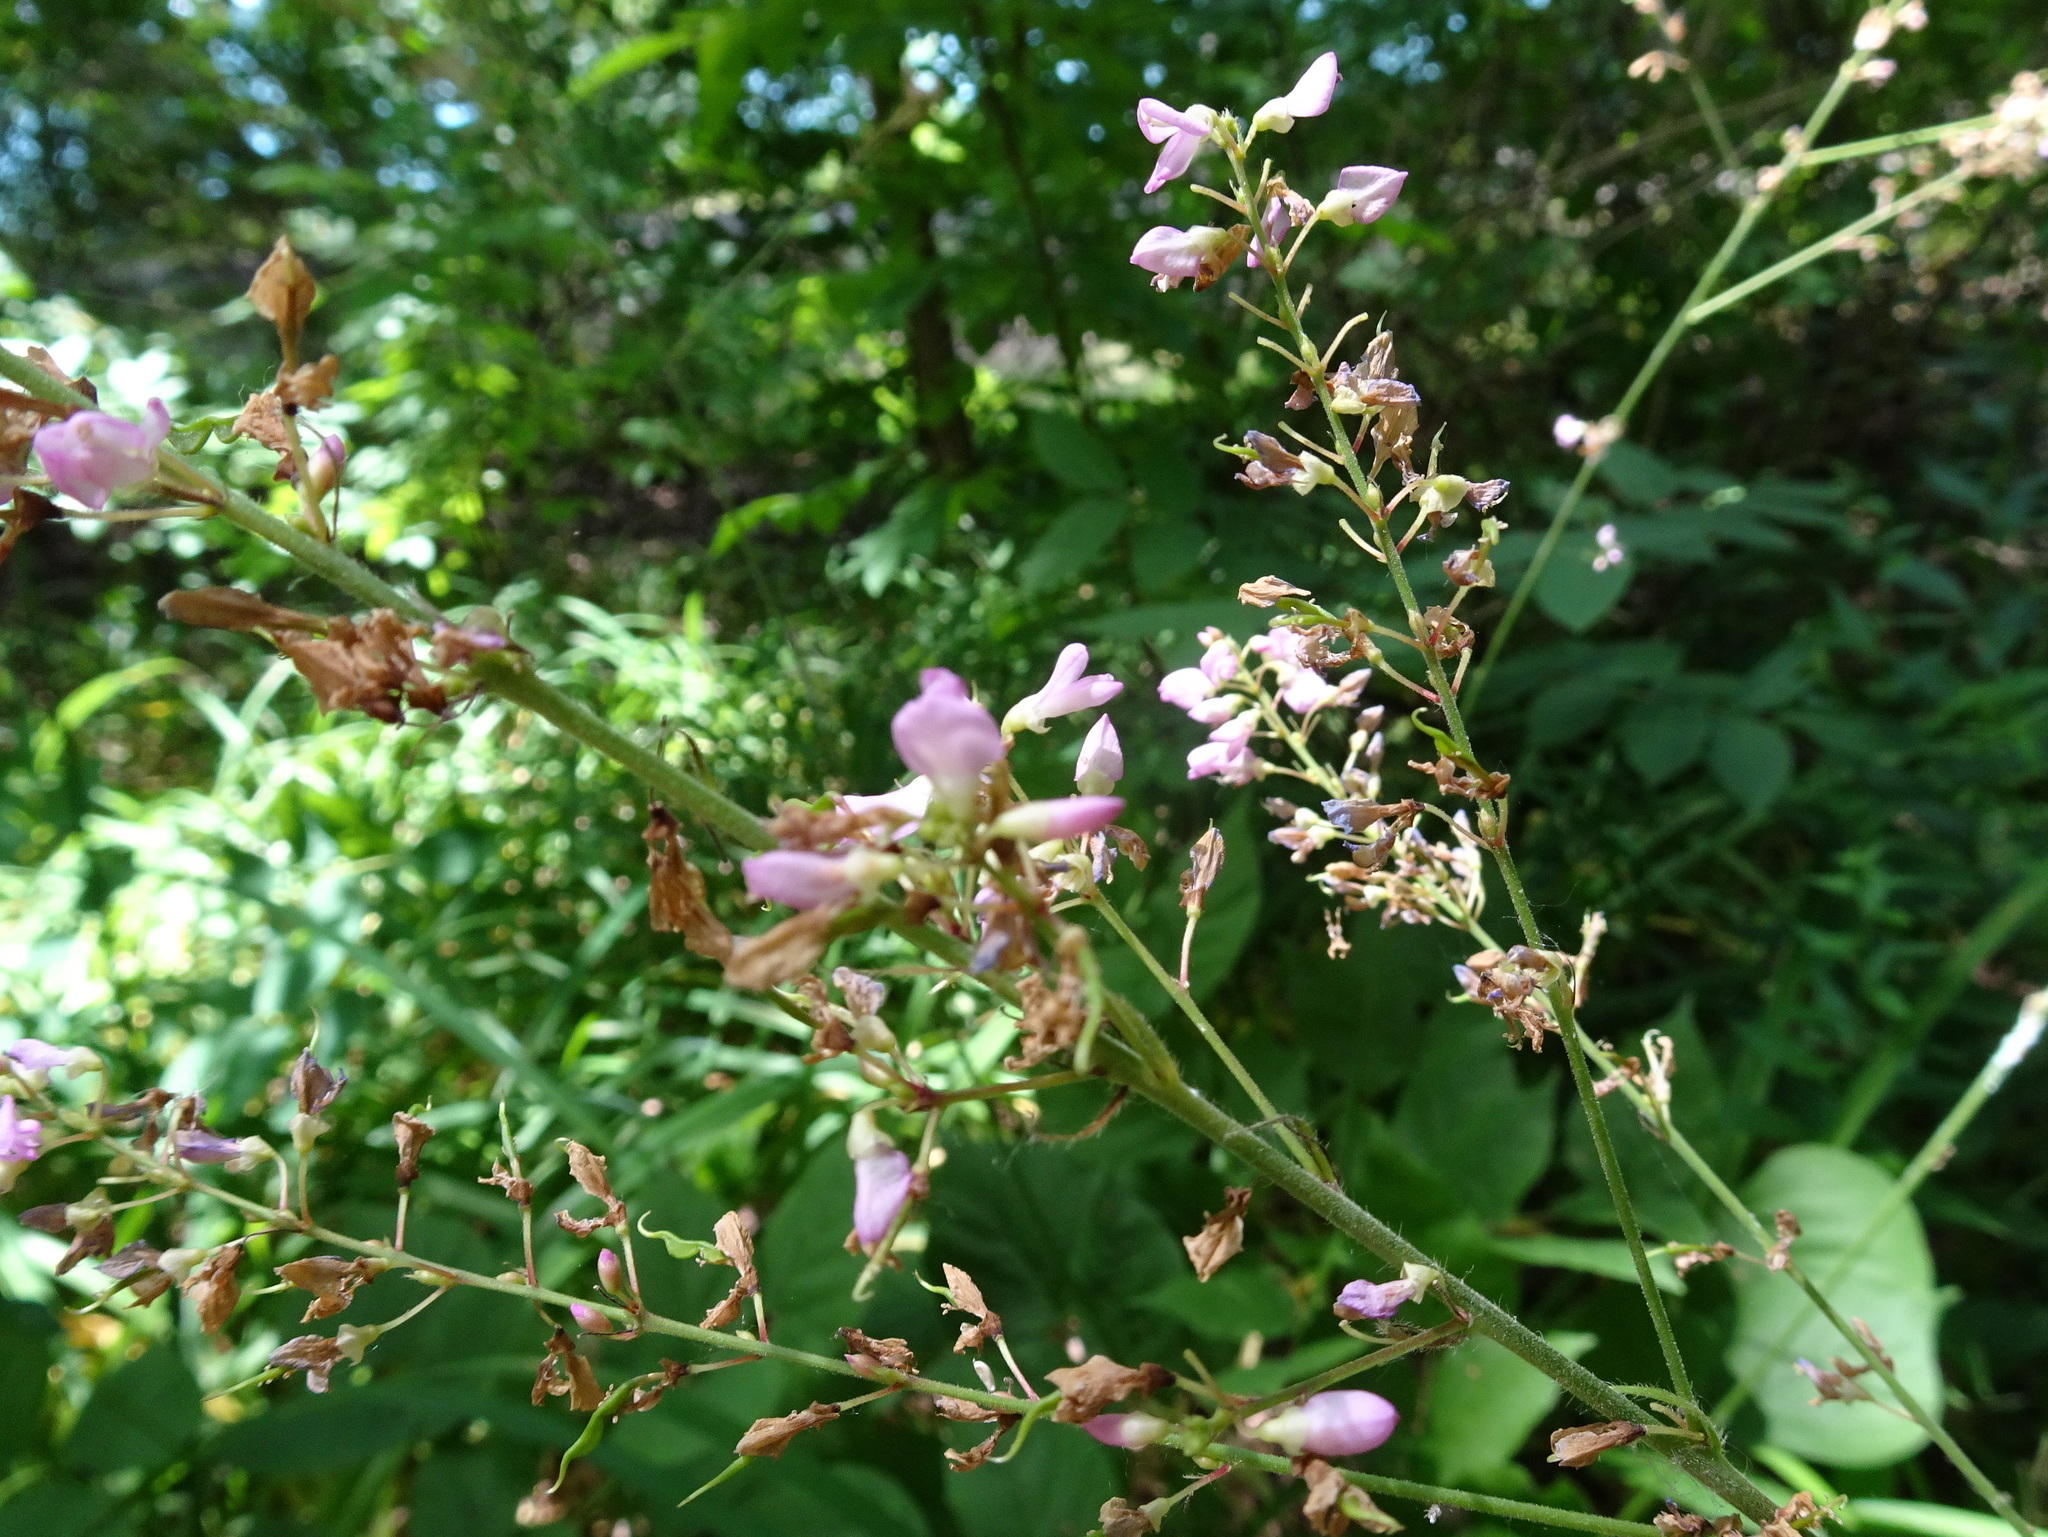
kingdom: Plantae
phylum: Tracheophyta
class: Magnoliopsida
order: Fabales
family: Fabaceae
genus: Hylodesmum
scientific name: Hylodesmum glutinosum
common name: Clustered-leaved tick-trefoil
